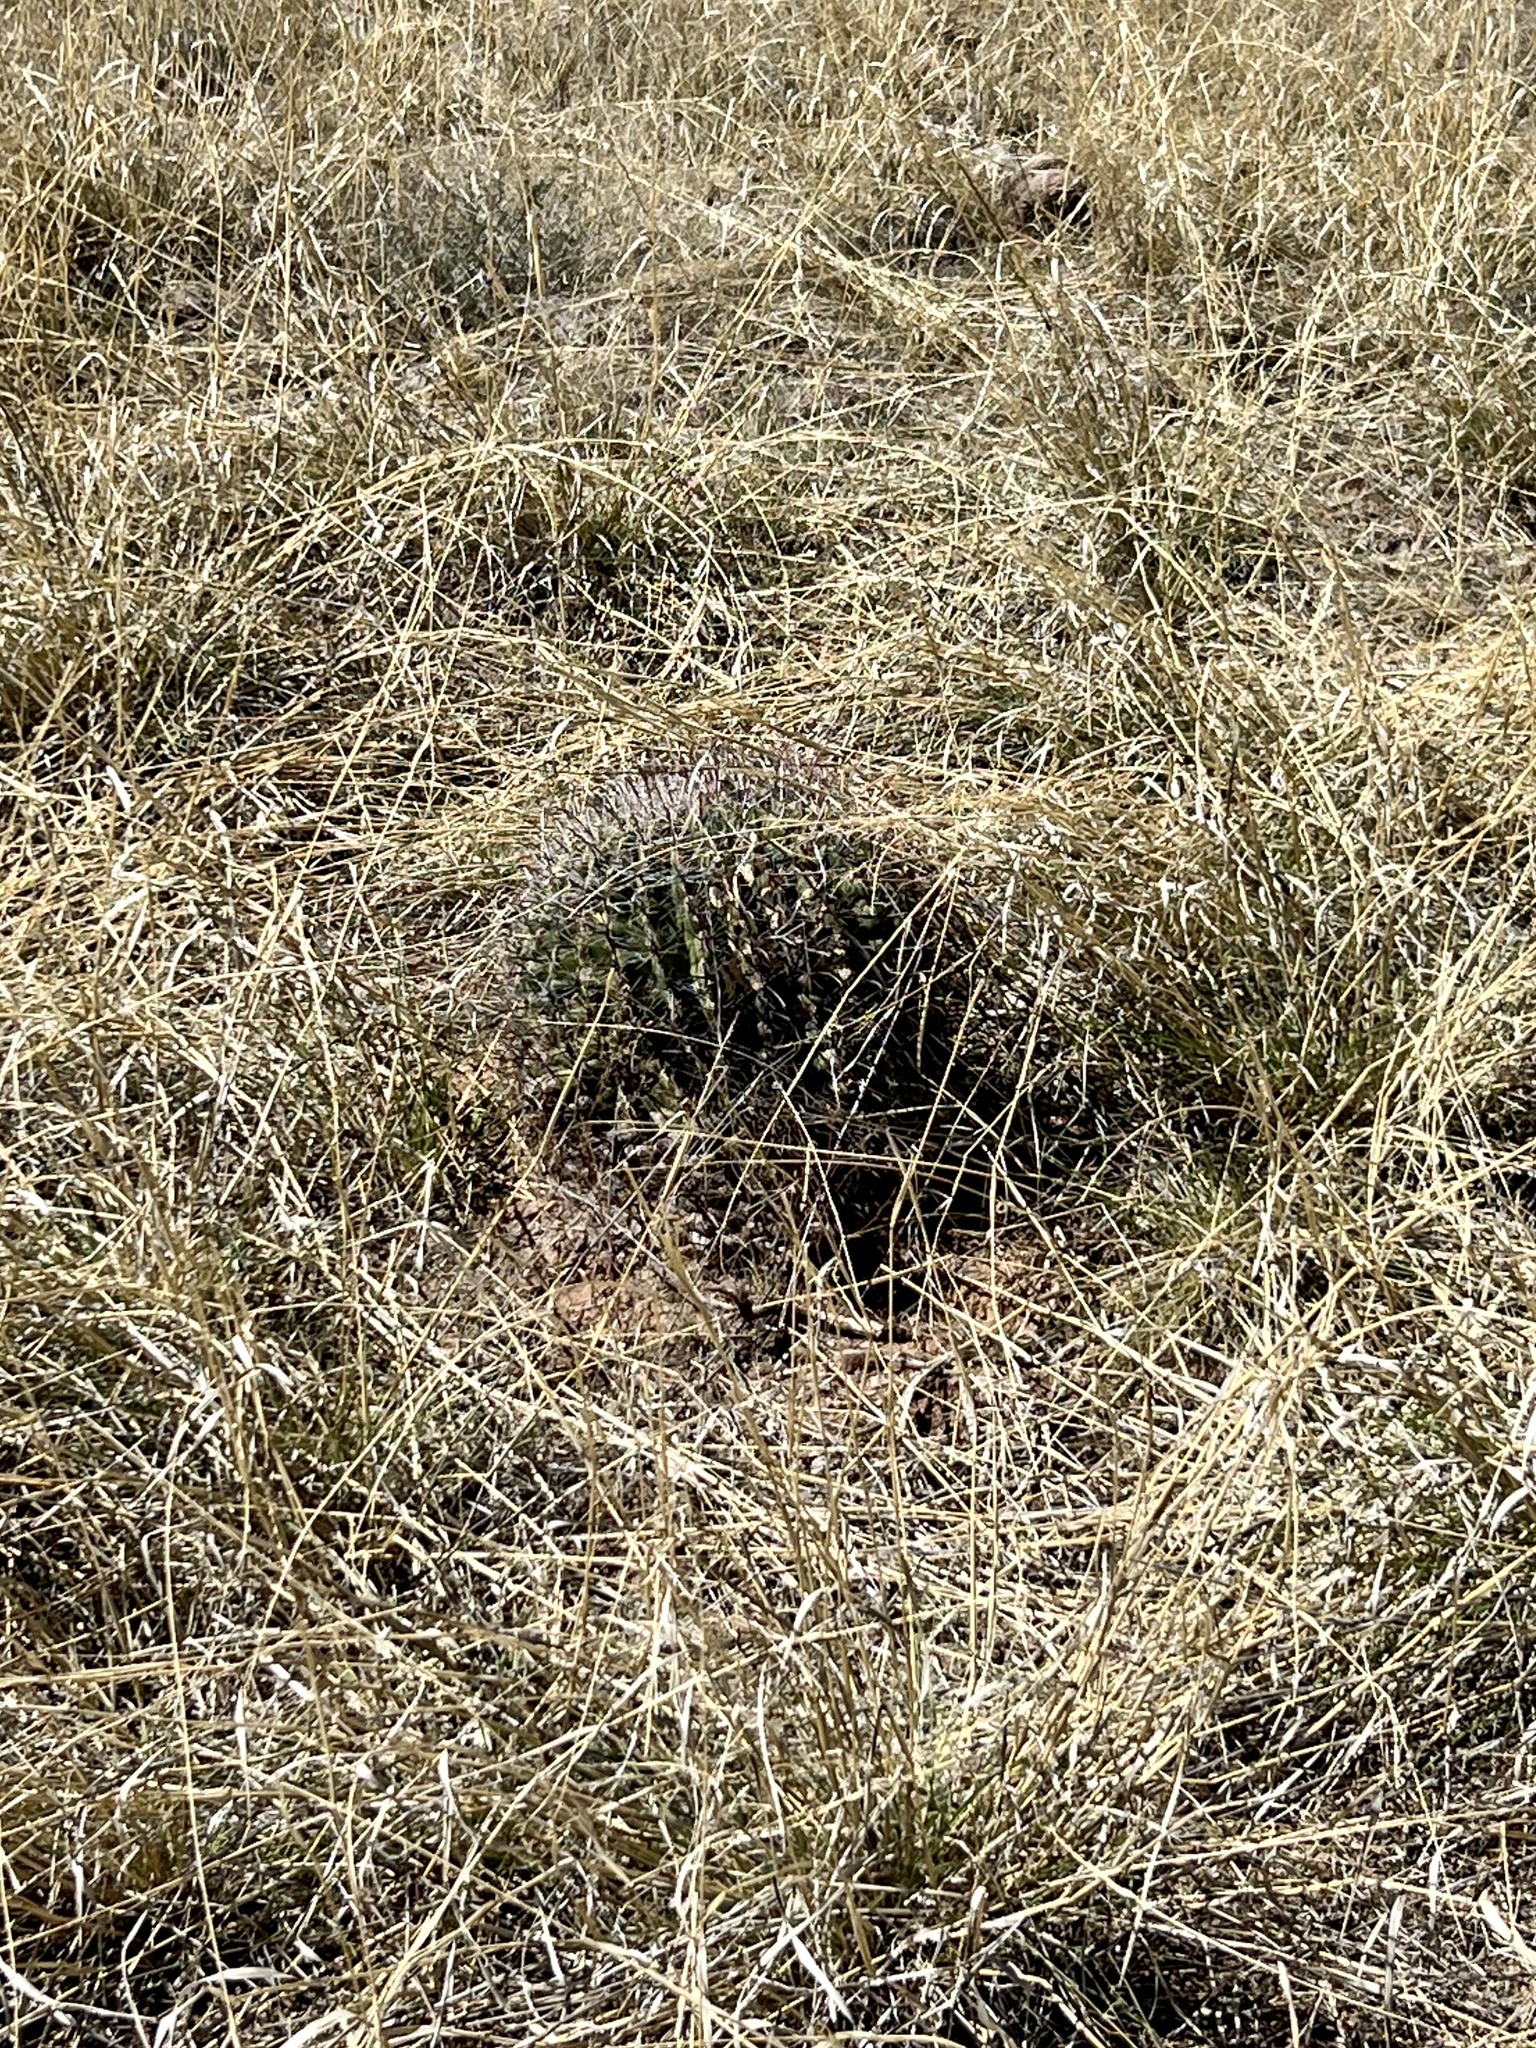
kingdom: Plantae
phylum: Tracheophyta
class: Magnoliopsida
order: Caryophyllales
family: Cactaceae
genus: Ferocactus
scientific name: Ferocactus wislizeni
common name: Candy barrel cactus
